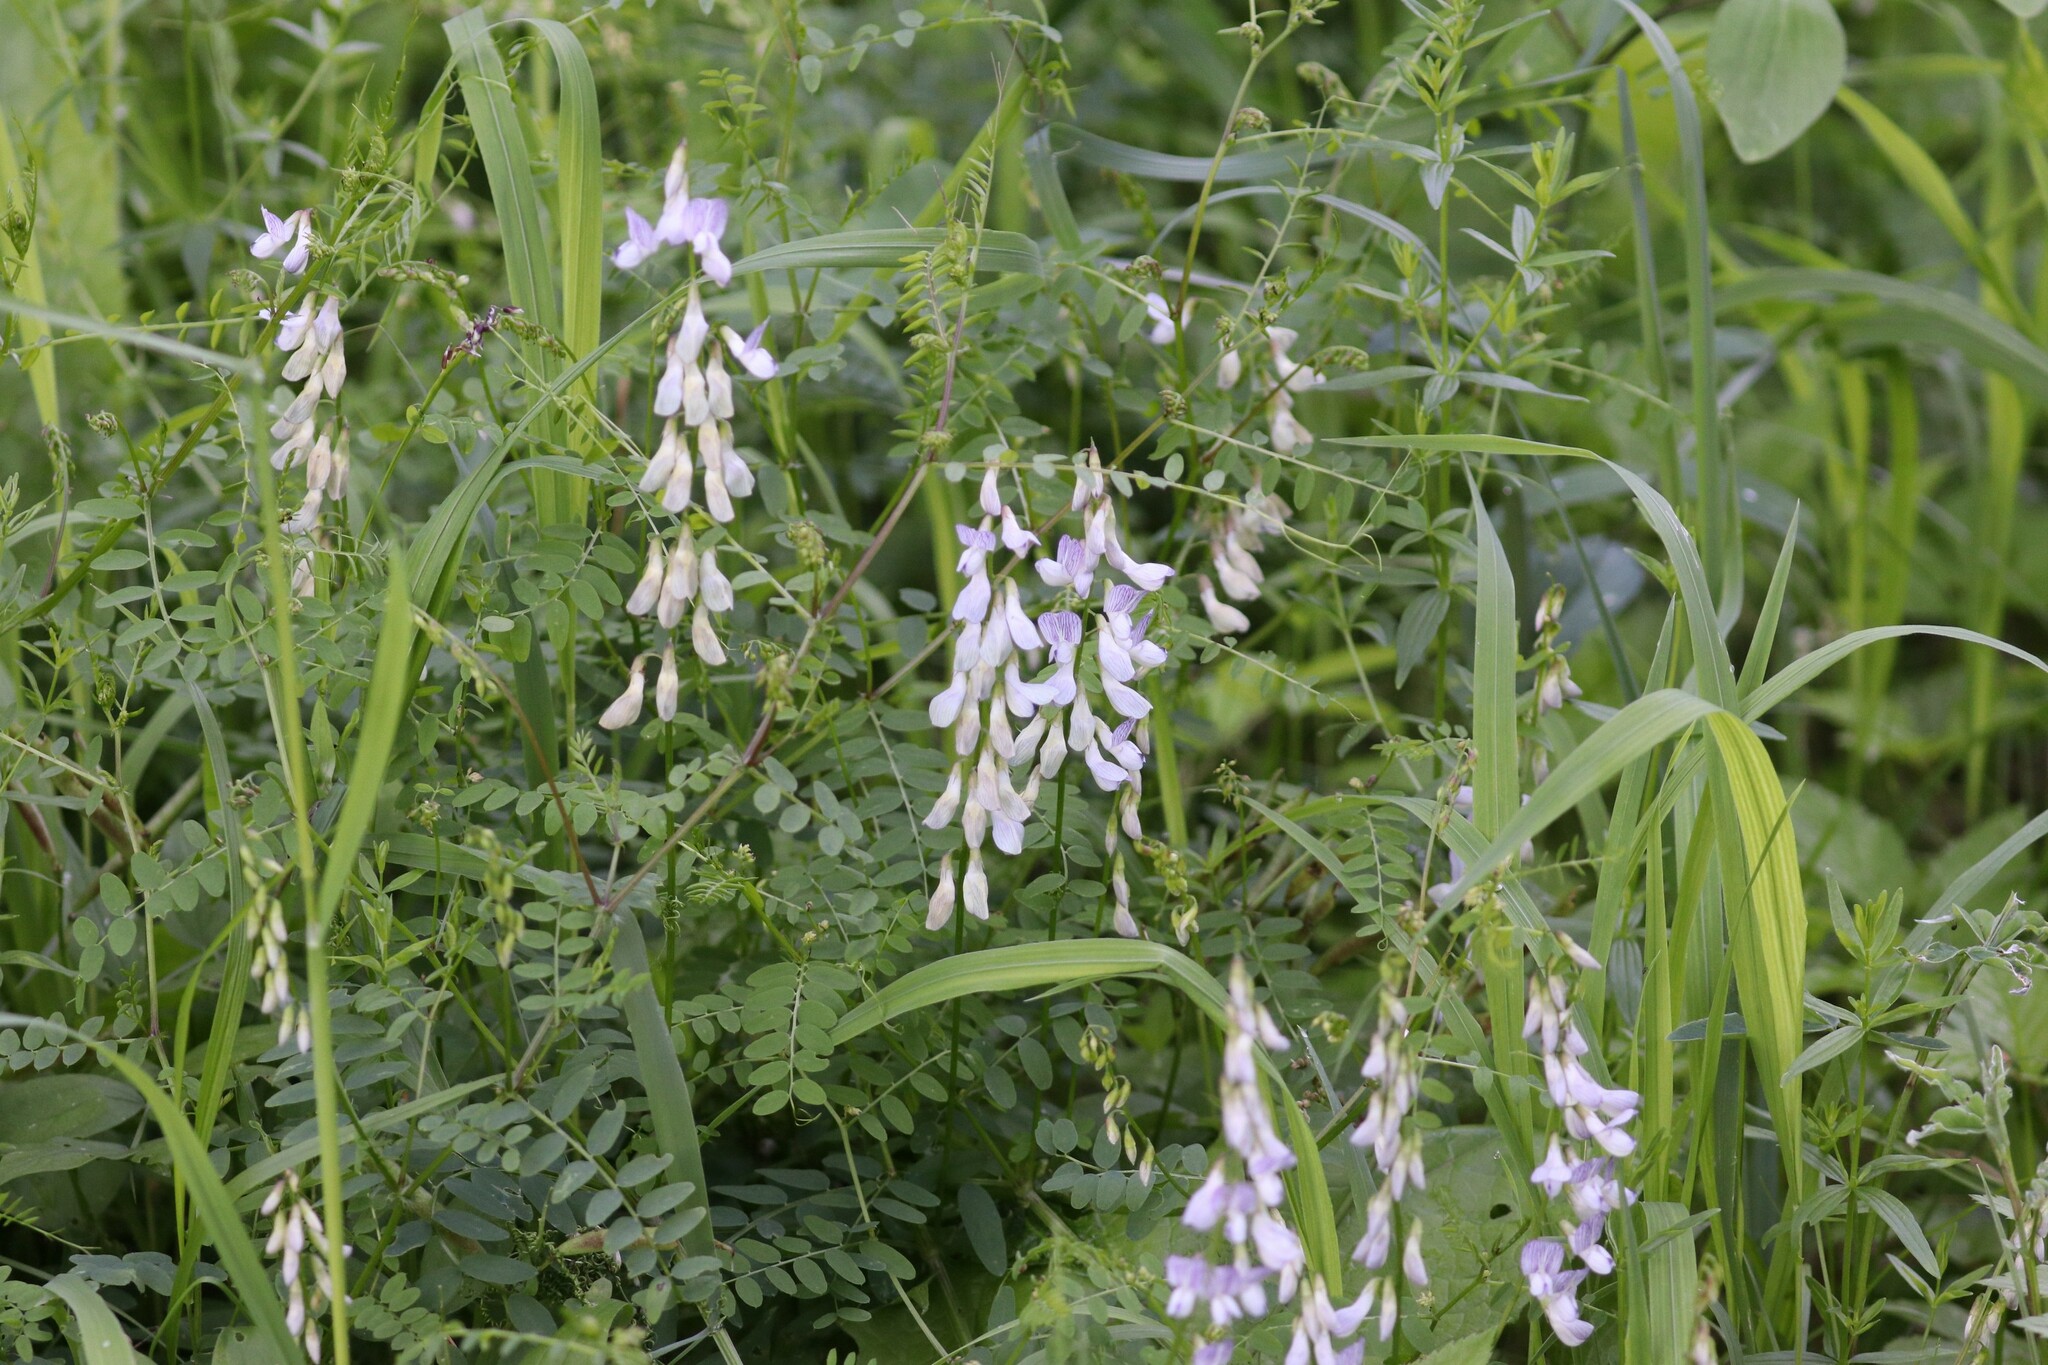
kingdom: Plantae
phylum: Tracheophyta
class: Magnoliopsida
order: Fabales
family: Fabaceae
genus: Vicia
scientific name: Vicia sylvatica
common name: Wood vetch
